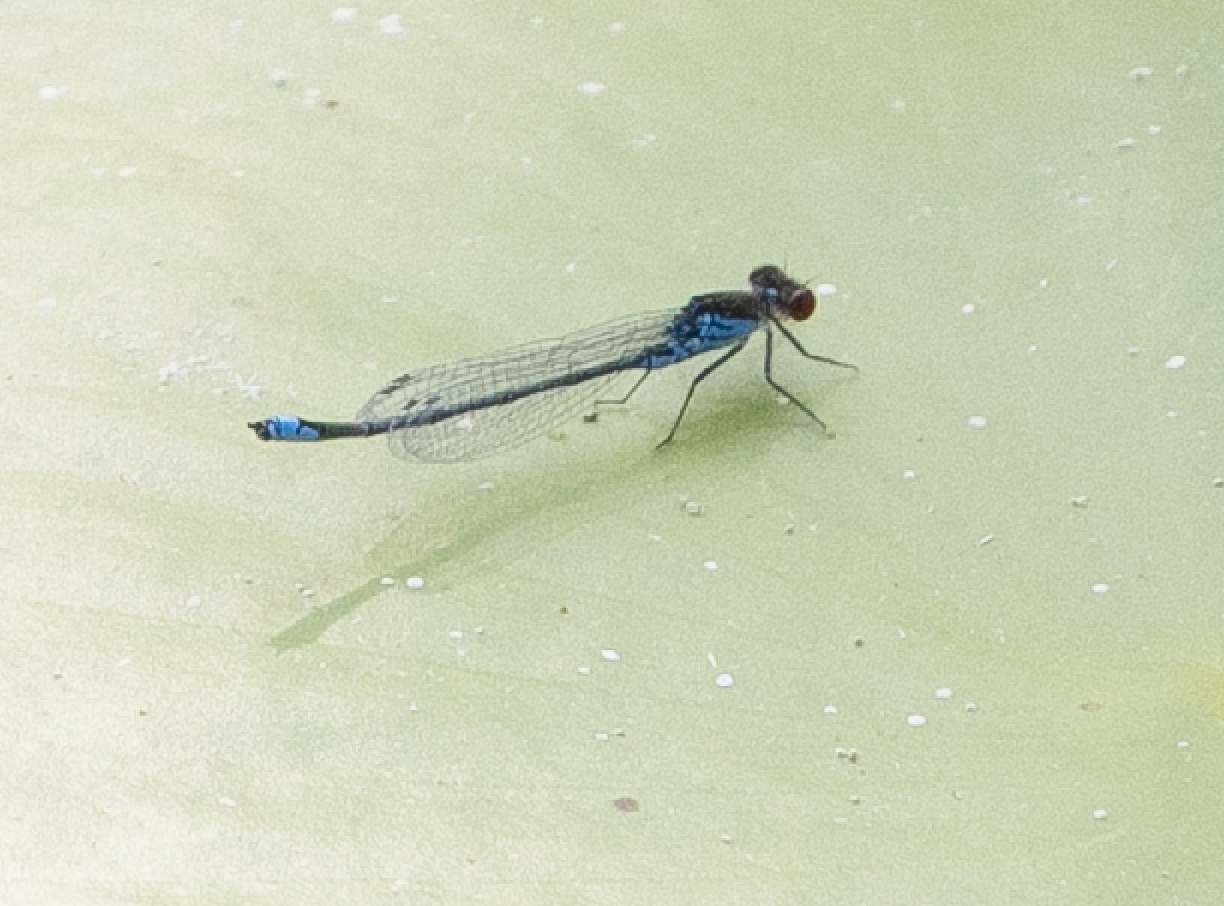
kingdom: Animalia
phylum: Arthropoda
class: Insecta
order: Odonata
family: Coenagrionidae
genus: Erythromma
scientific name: Erythromma viridulum
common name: Small red-eyed damselfly
